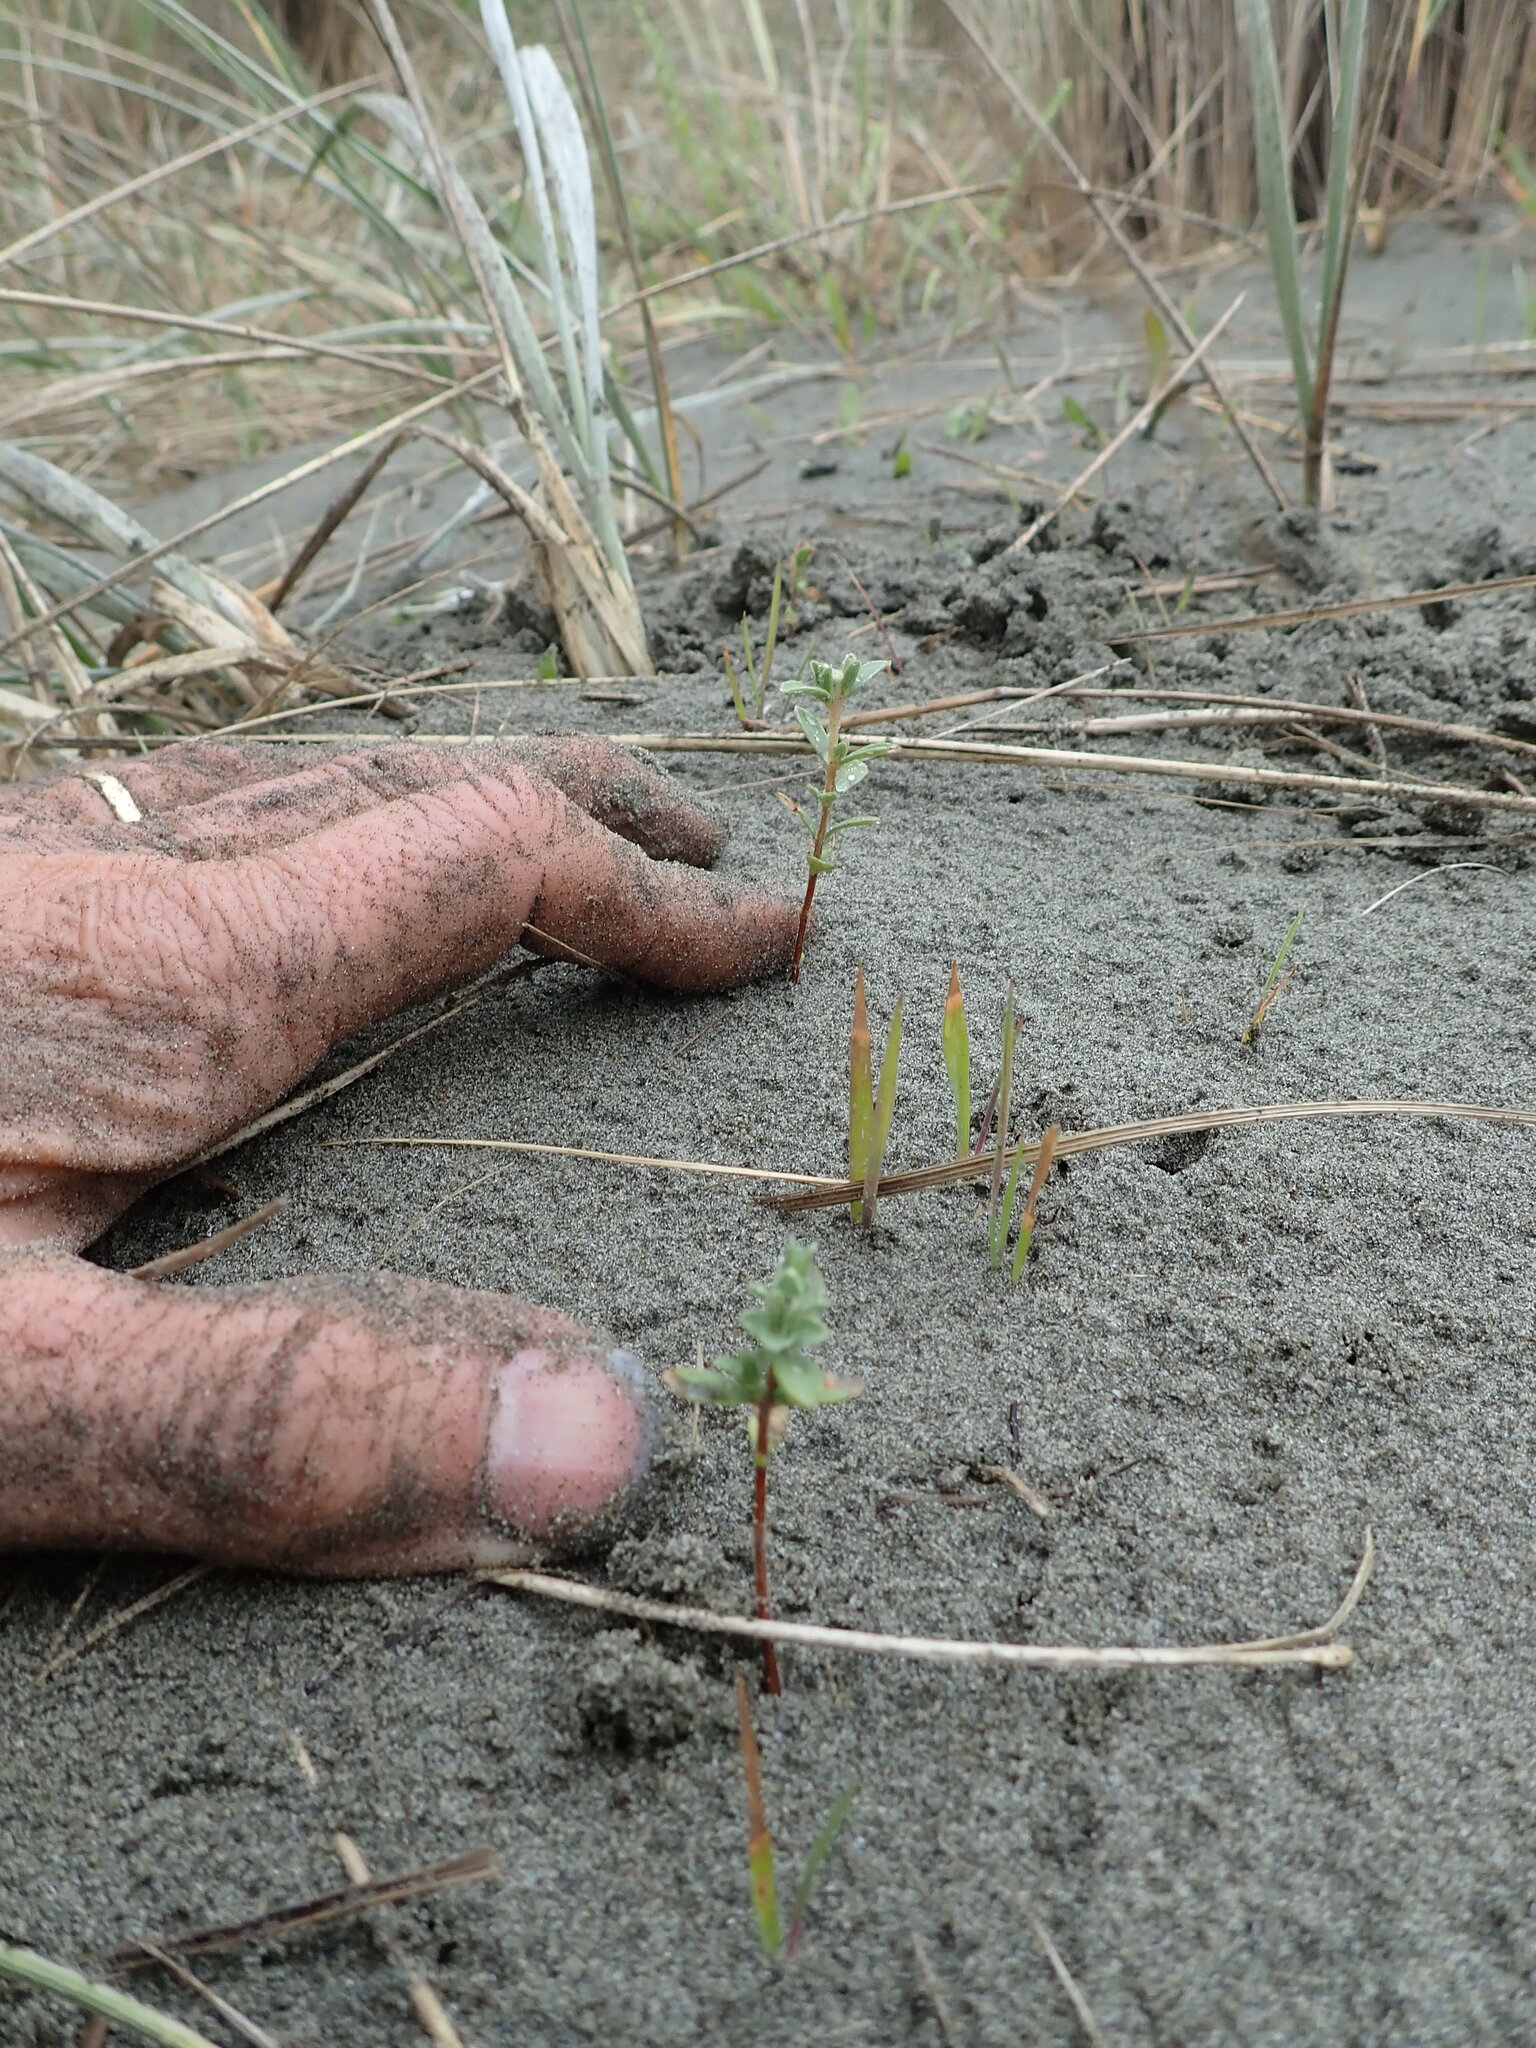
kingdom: Plantae
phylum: Tracheophyta
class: Magnoliopsida
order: Malvales
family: Thymelaeaceae
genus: Pimelea
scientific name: Pimelea villosa
